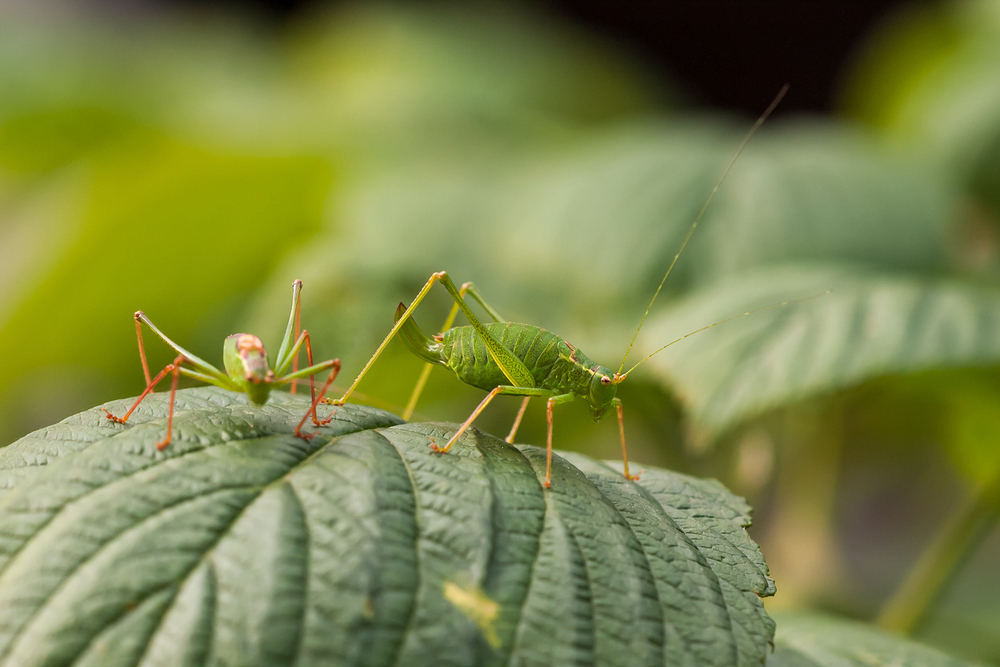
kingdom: Animalia
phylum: Arthropoda
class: Insecta
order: Orthoptera
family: Tettigoniidae
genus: Leptophyes
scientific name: Leptophyes punctatissima
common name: Speckled bush-cricket
